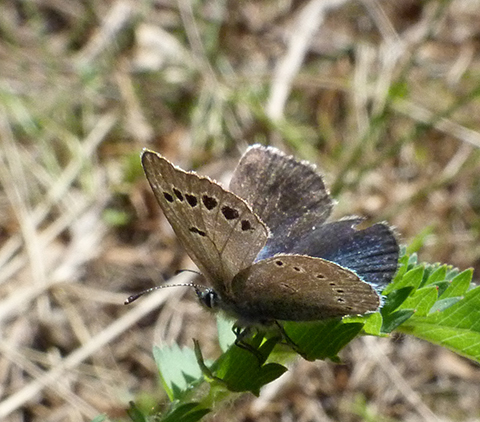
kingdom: Animalia
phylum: Arthropoda
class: Insecta
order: Lepidoptera
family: Lycaenidae
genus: Glaucopsyche
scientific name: Glaucopsyche melanops
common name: Black-eyed blue
